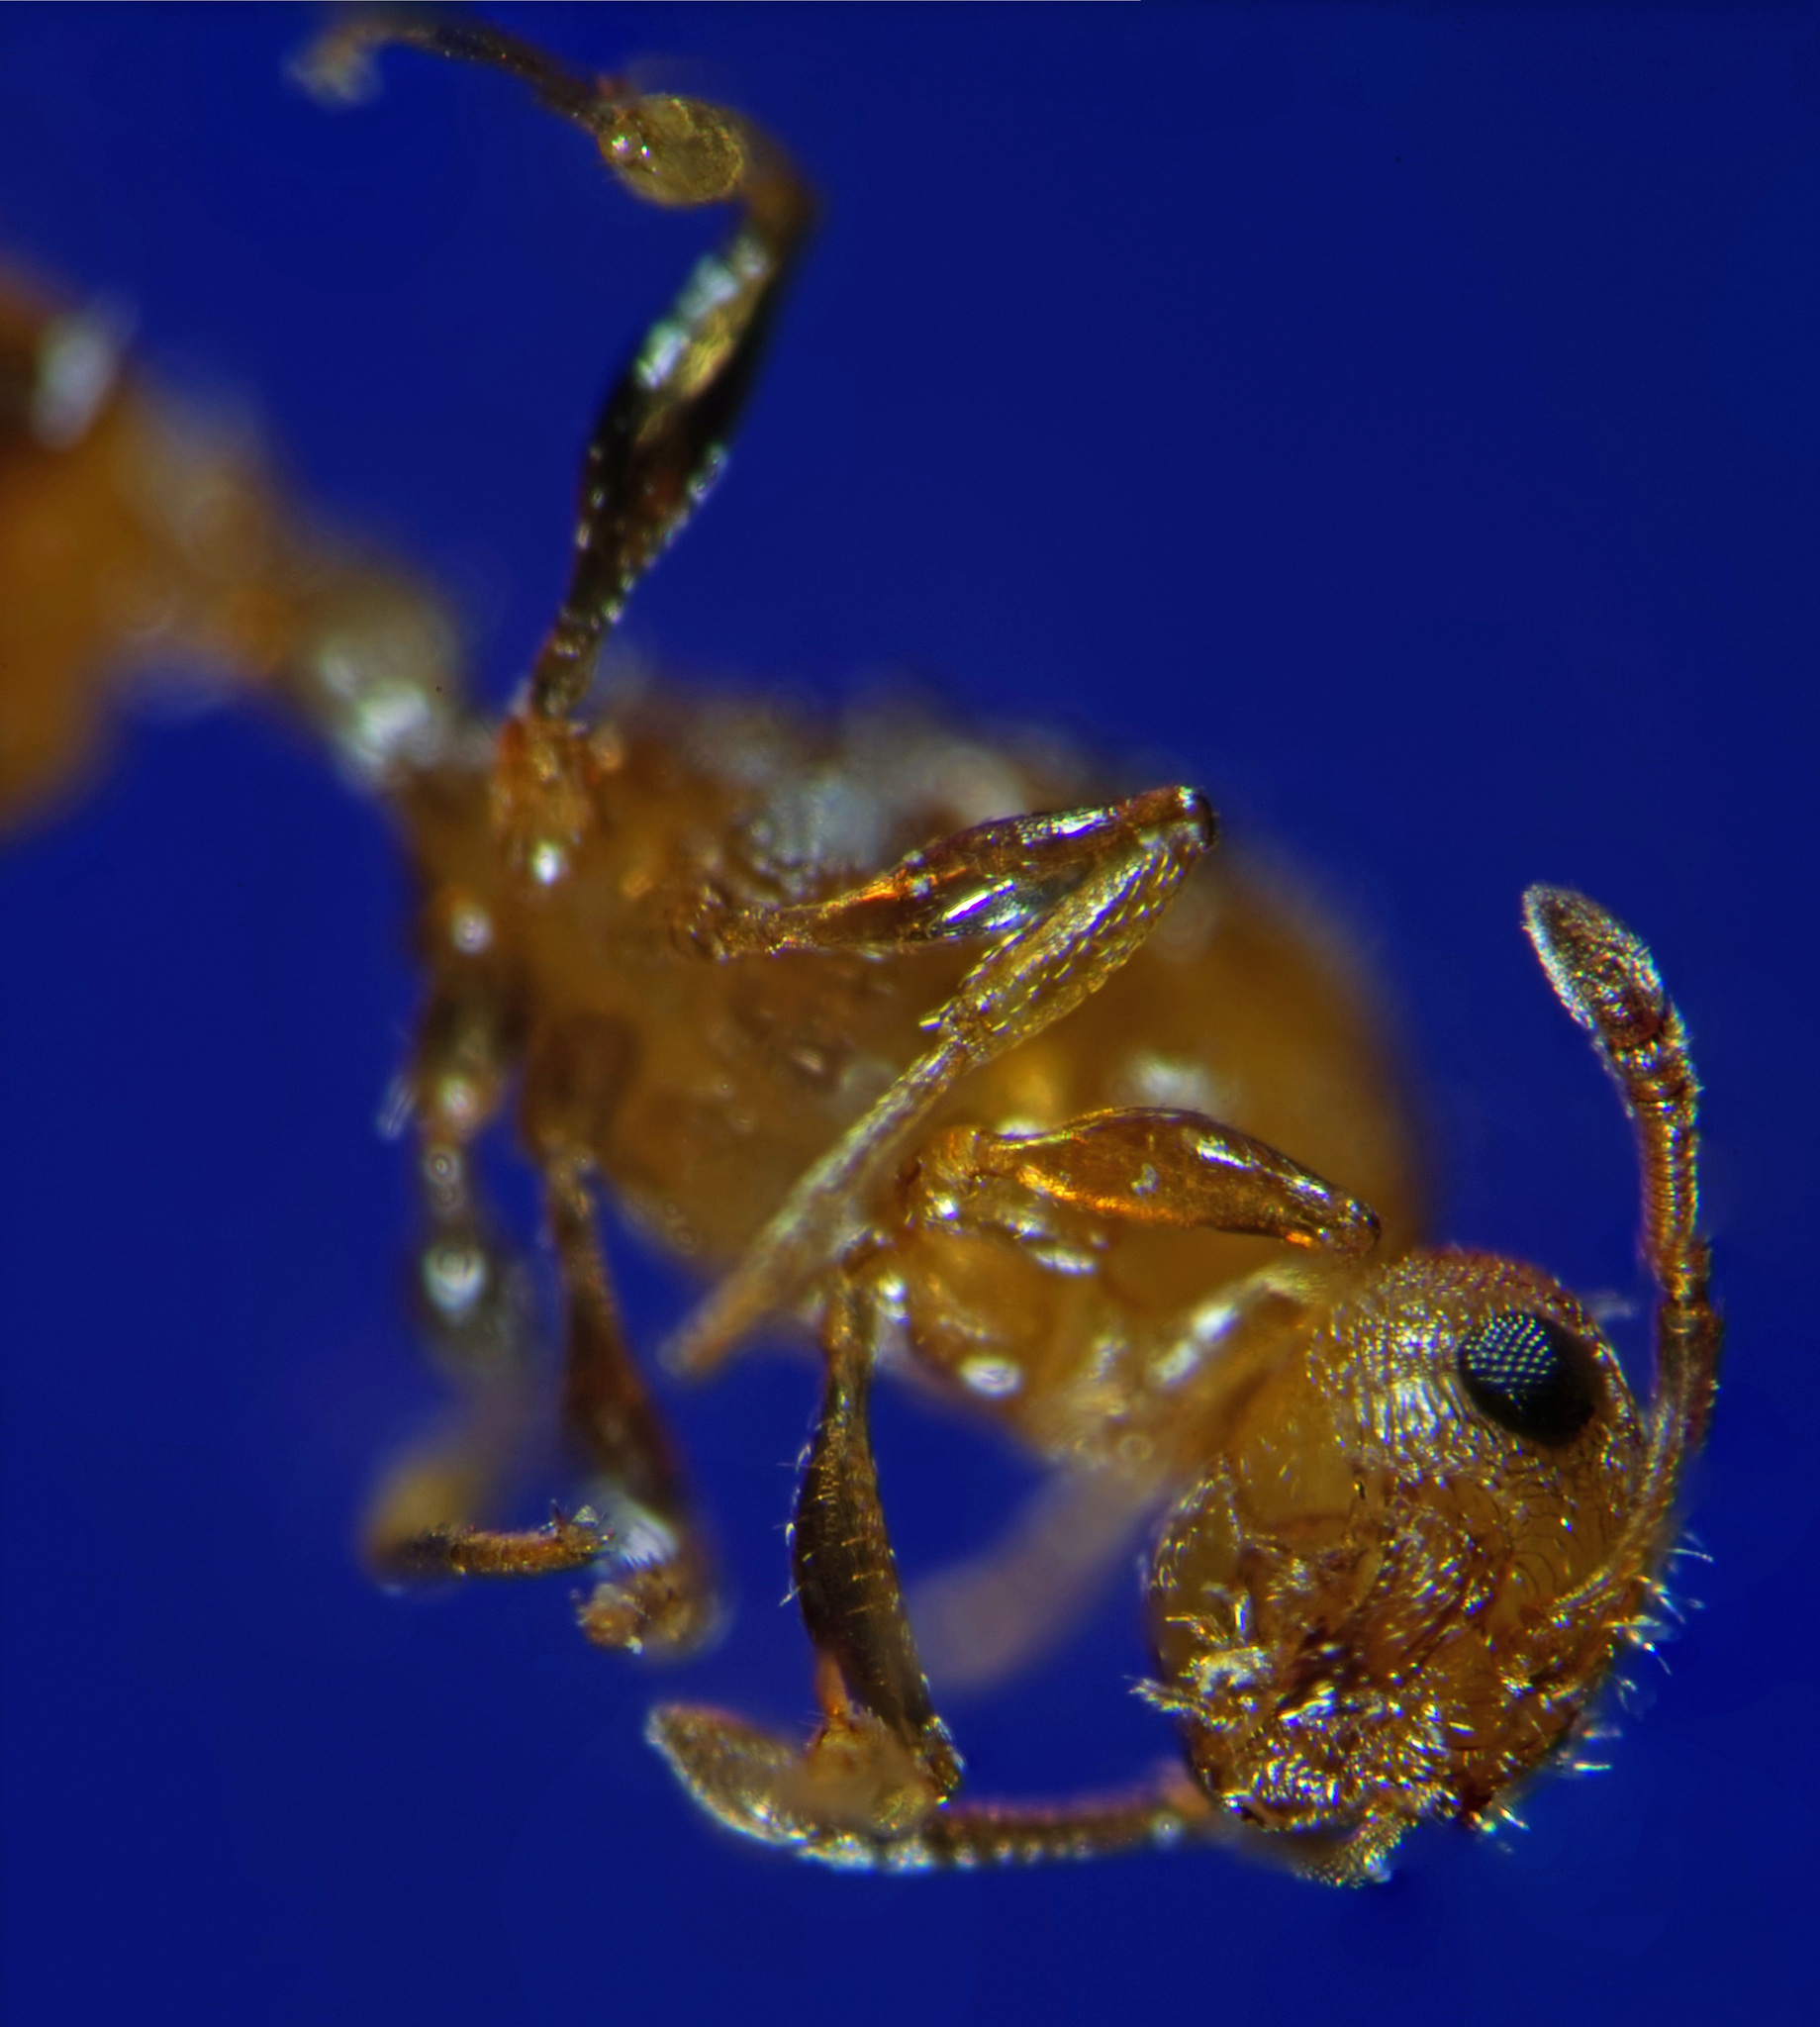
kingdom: Animalia
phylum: Arthropoda
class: Insecta
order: Hymenoptera
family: Formicidae
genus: Monomorium
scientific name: Monomorium pharaonis
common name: Pharaoh ant
